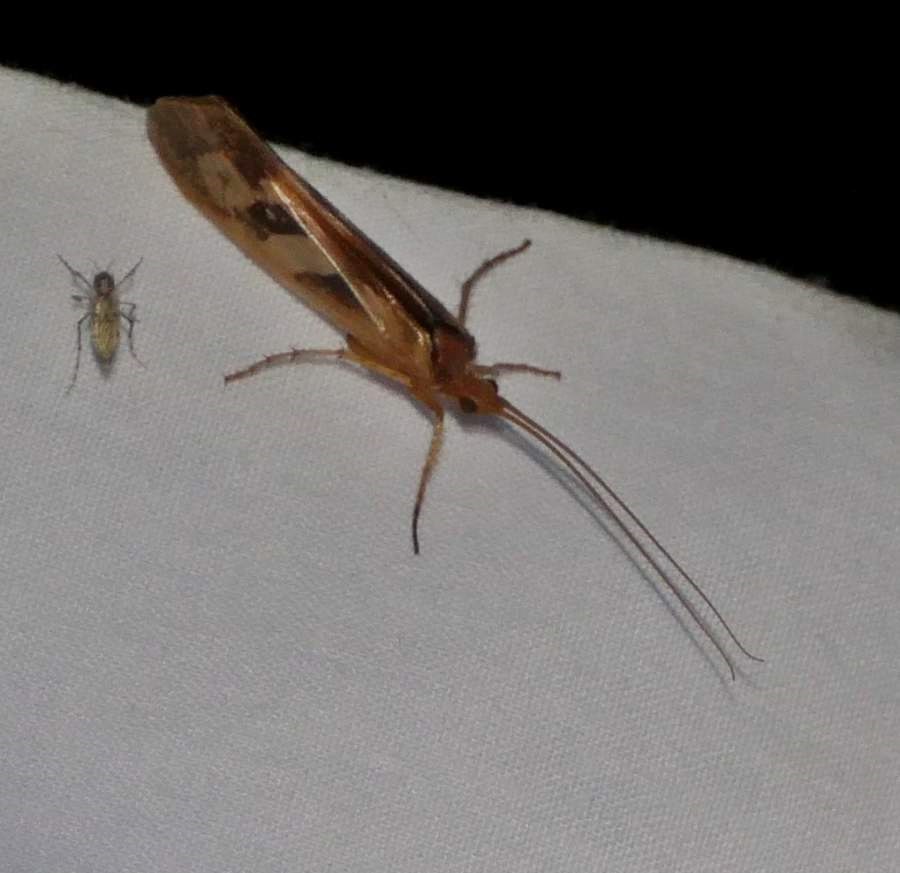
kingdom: Animalia
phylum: Arthropoda
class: Insecta
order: Trichoptera
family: Limnephilidae
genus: Limnephilus
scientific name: Limnephilus rhombicus
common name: Diamond northern caddisfly
